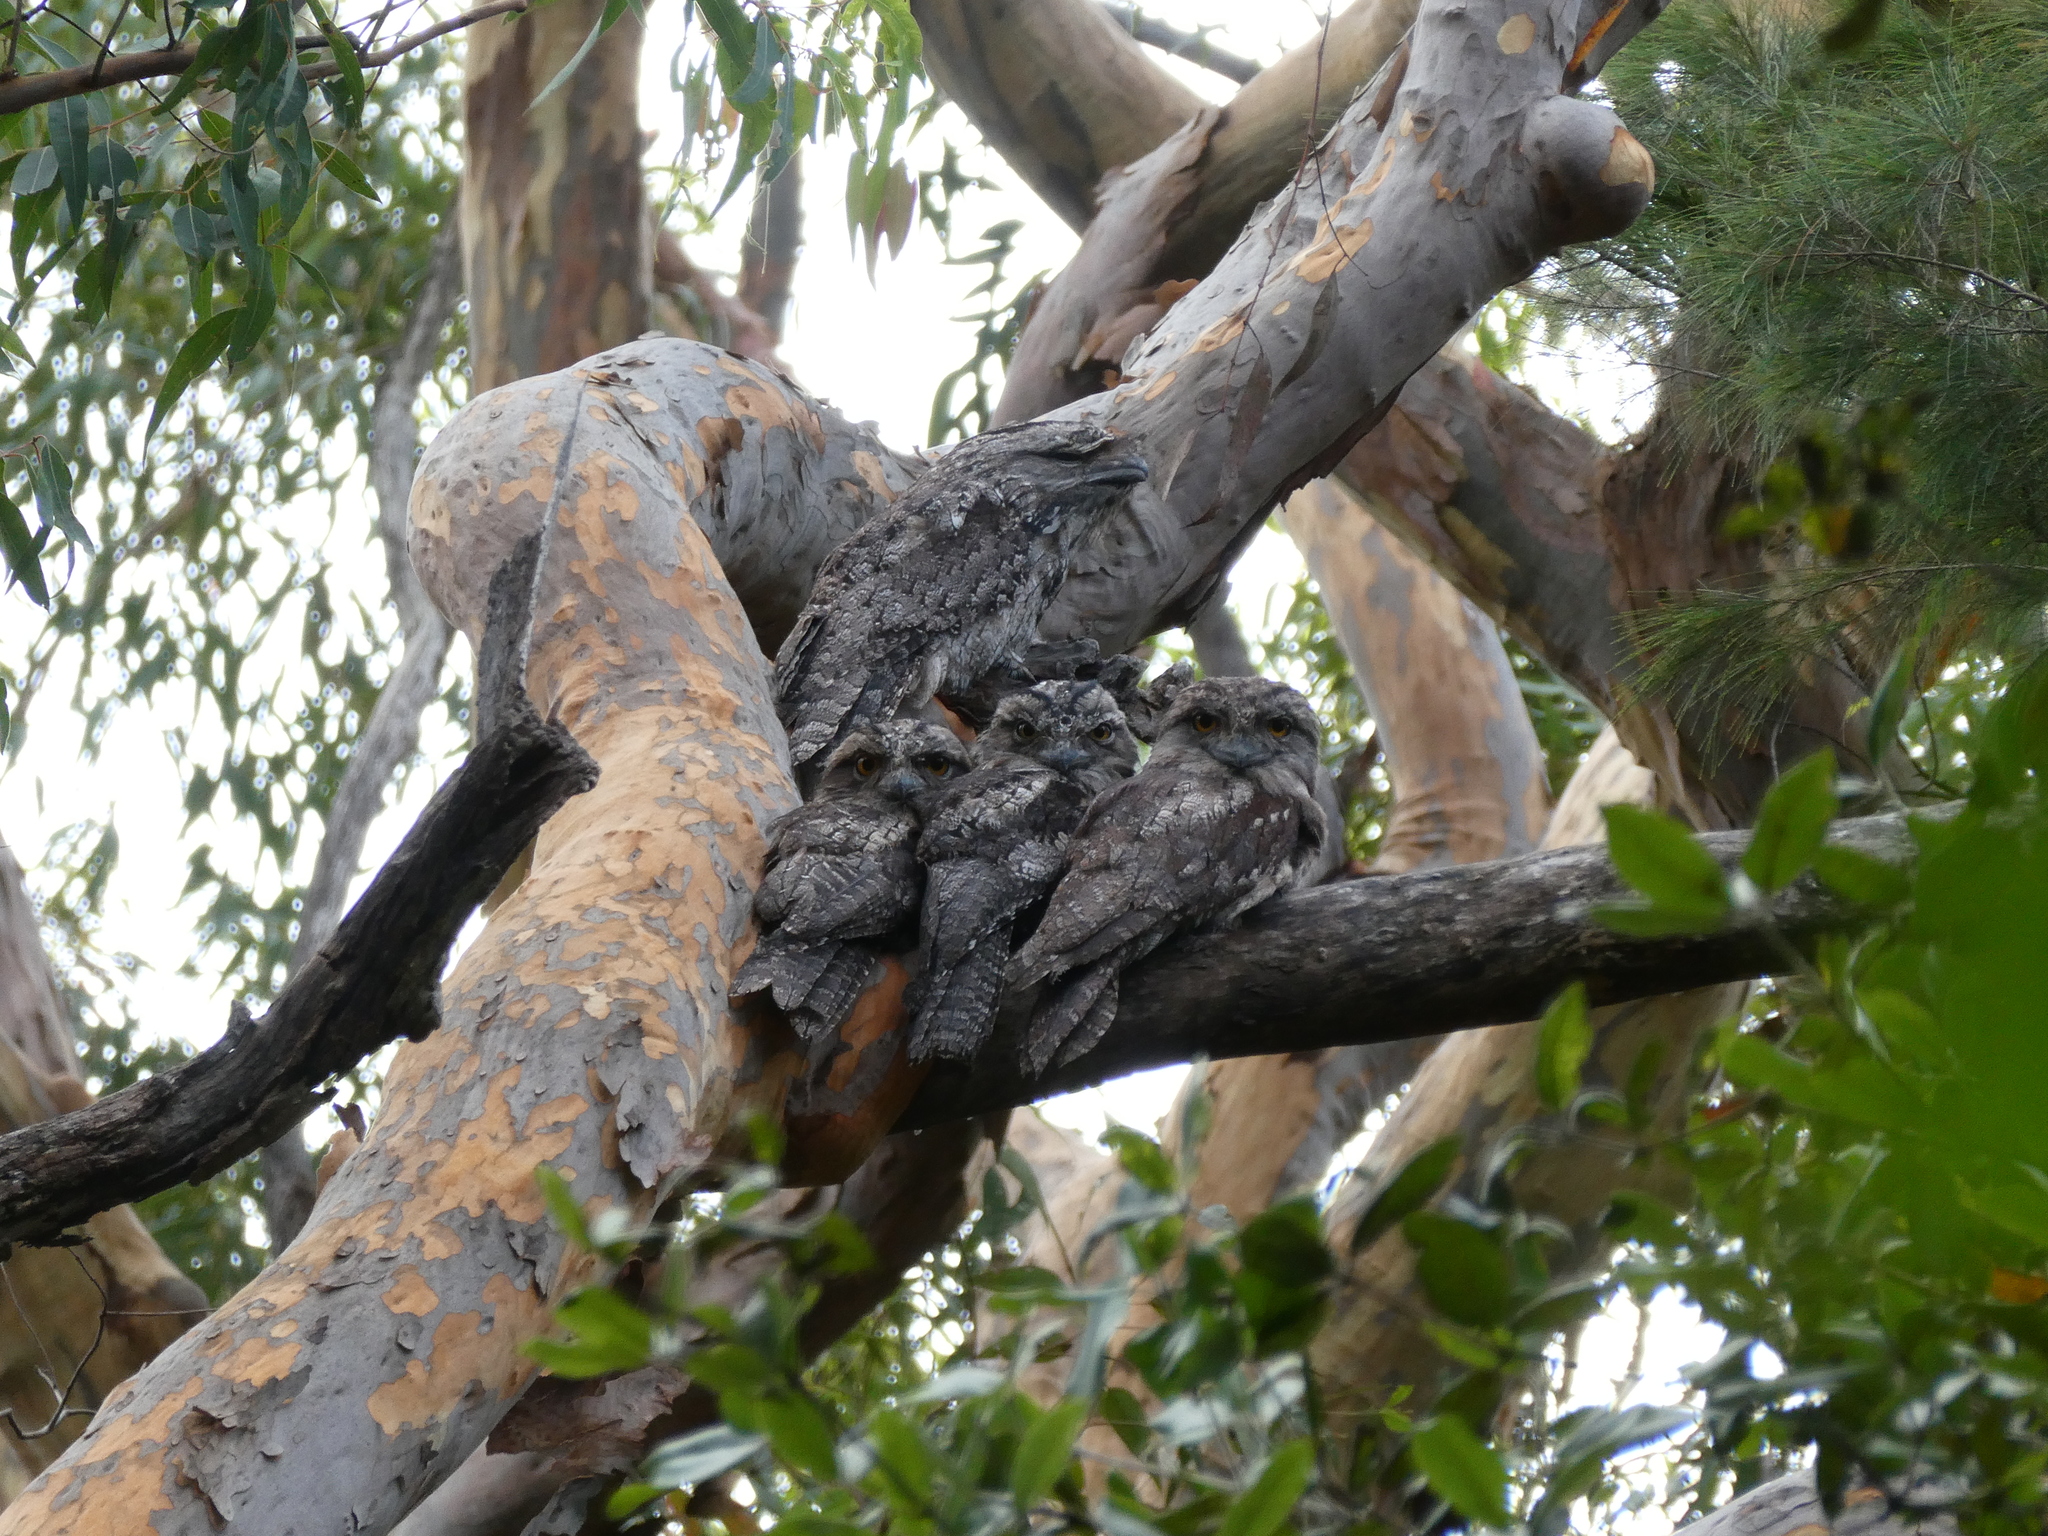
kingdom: Animalia
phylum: Chordata
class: Aves
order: Caprimulgiformes
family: Podargidae
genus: Podargus
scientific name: Podargus strigoides
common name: Tawny frogmouth
